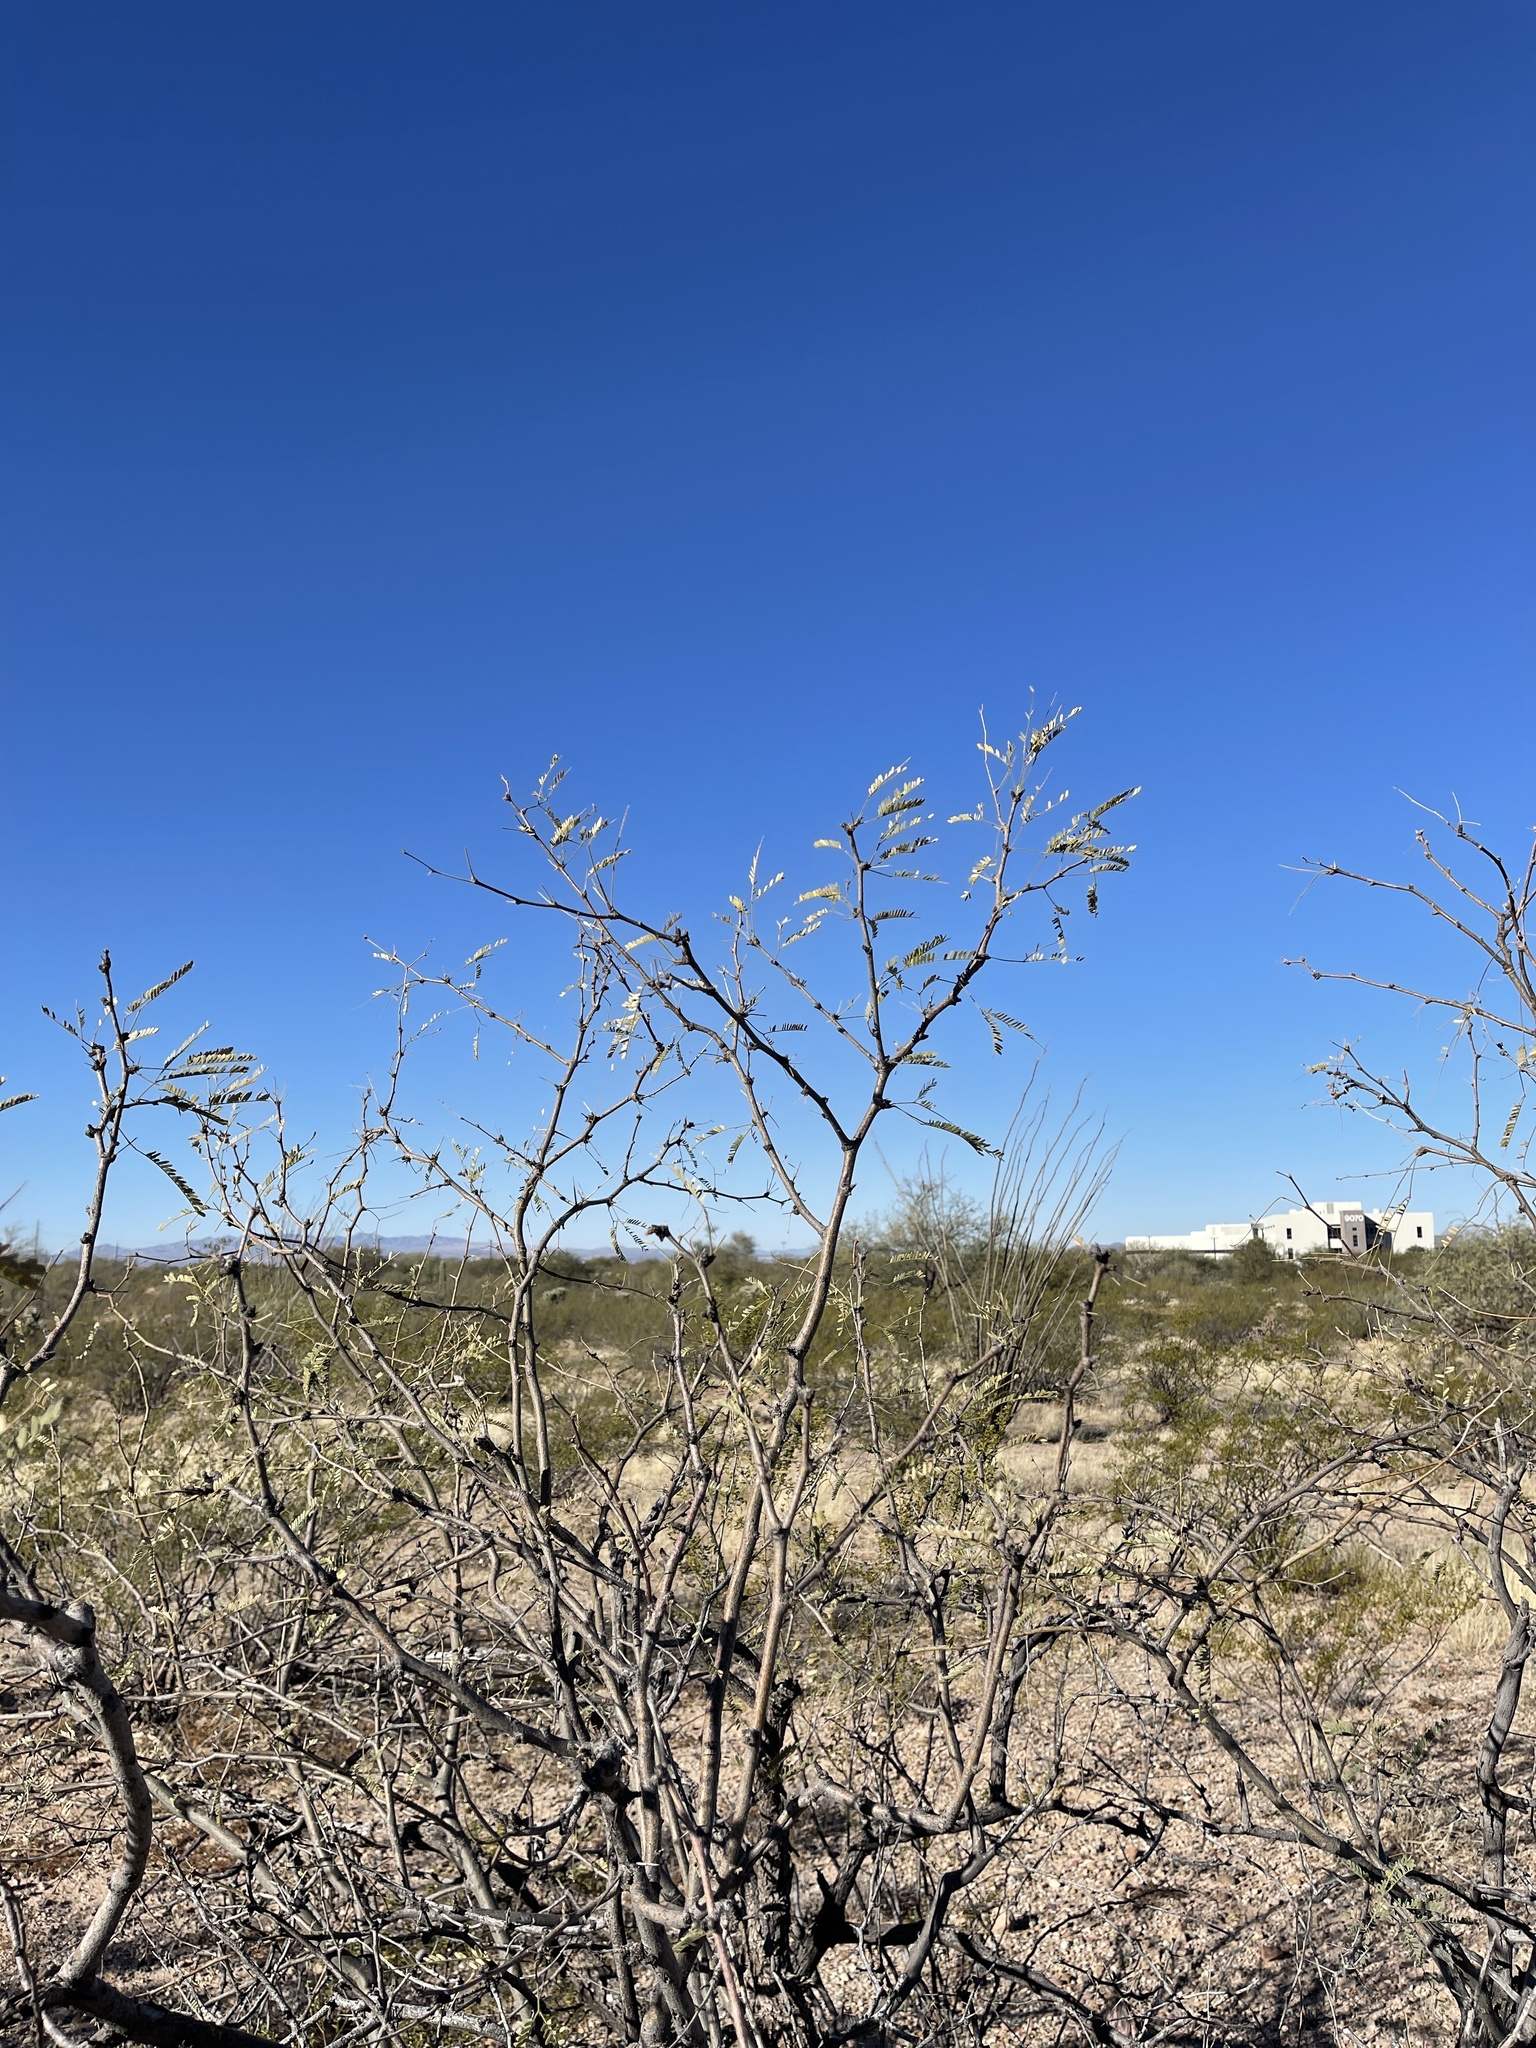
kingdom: Plantae
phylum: Tracheophyta
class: Magnoliopsida
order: Fabales
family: Fabaceae
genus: Prosopis
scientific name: Prosopis velutina
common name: Velvet mesquite
